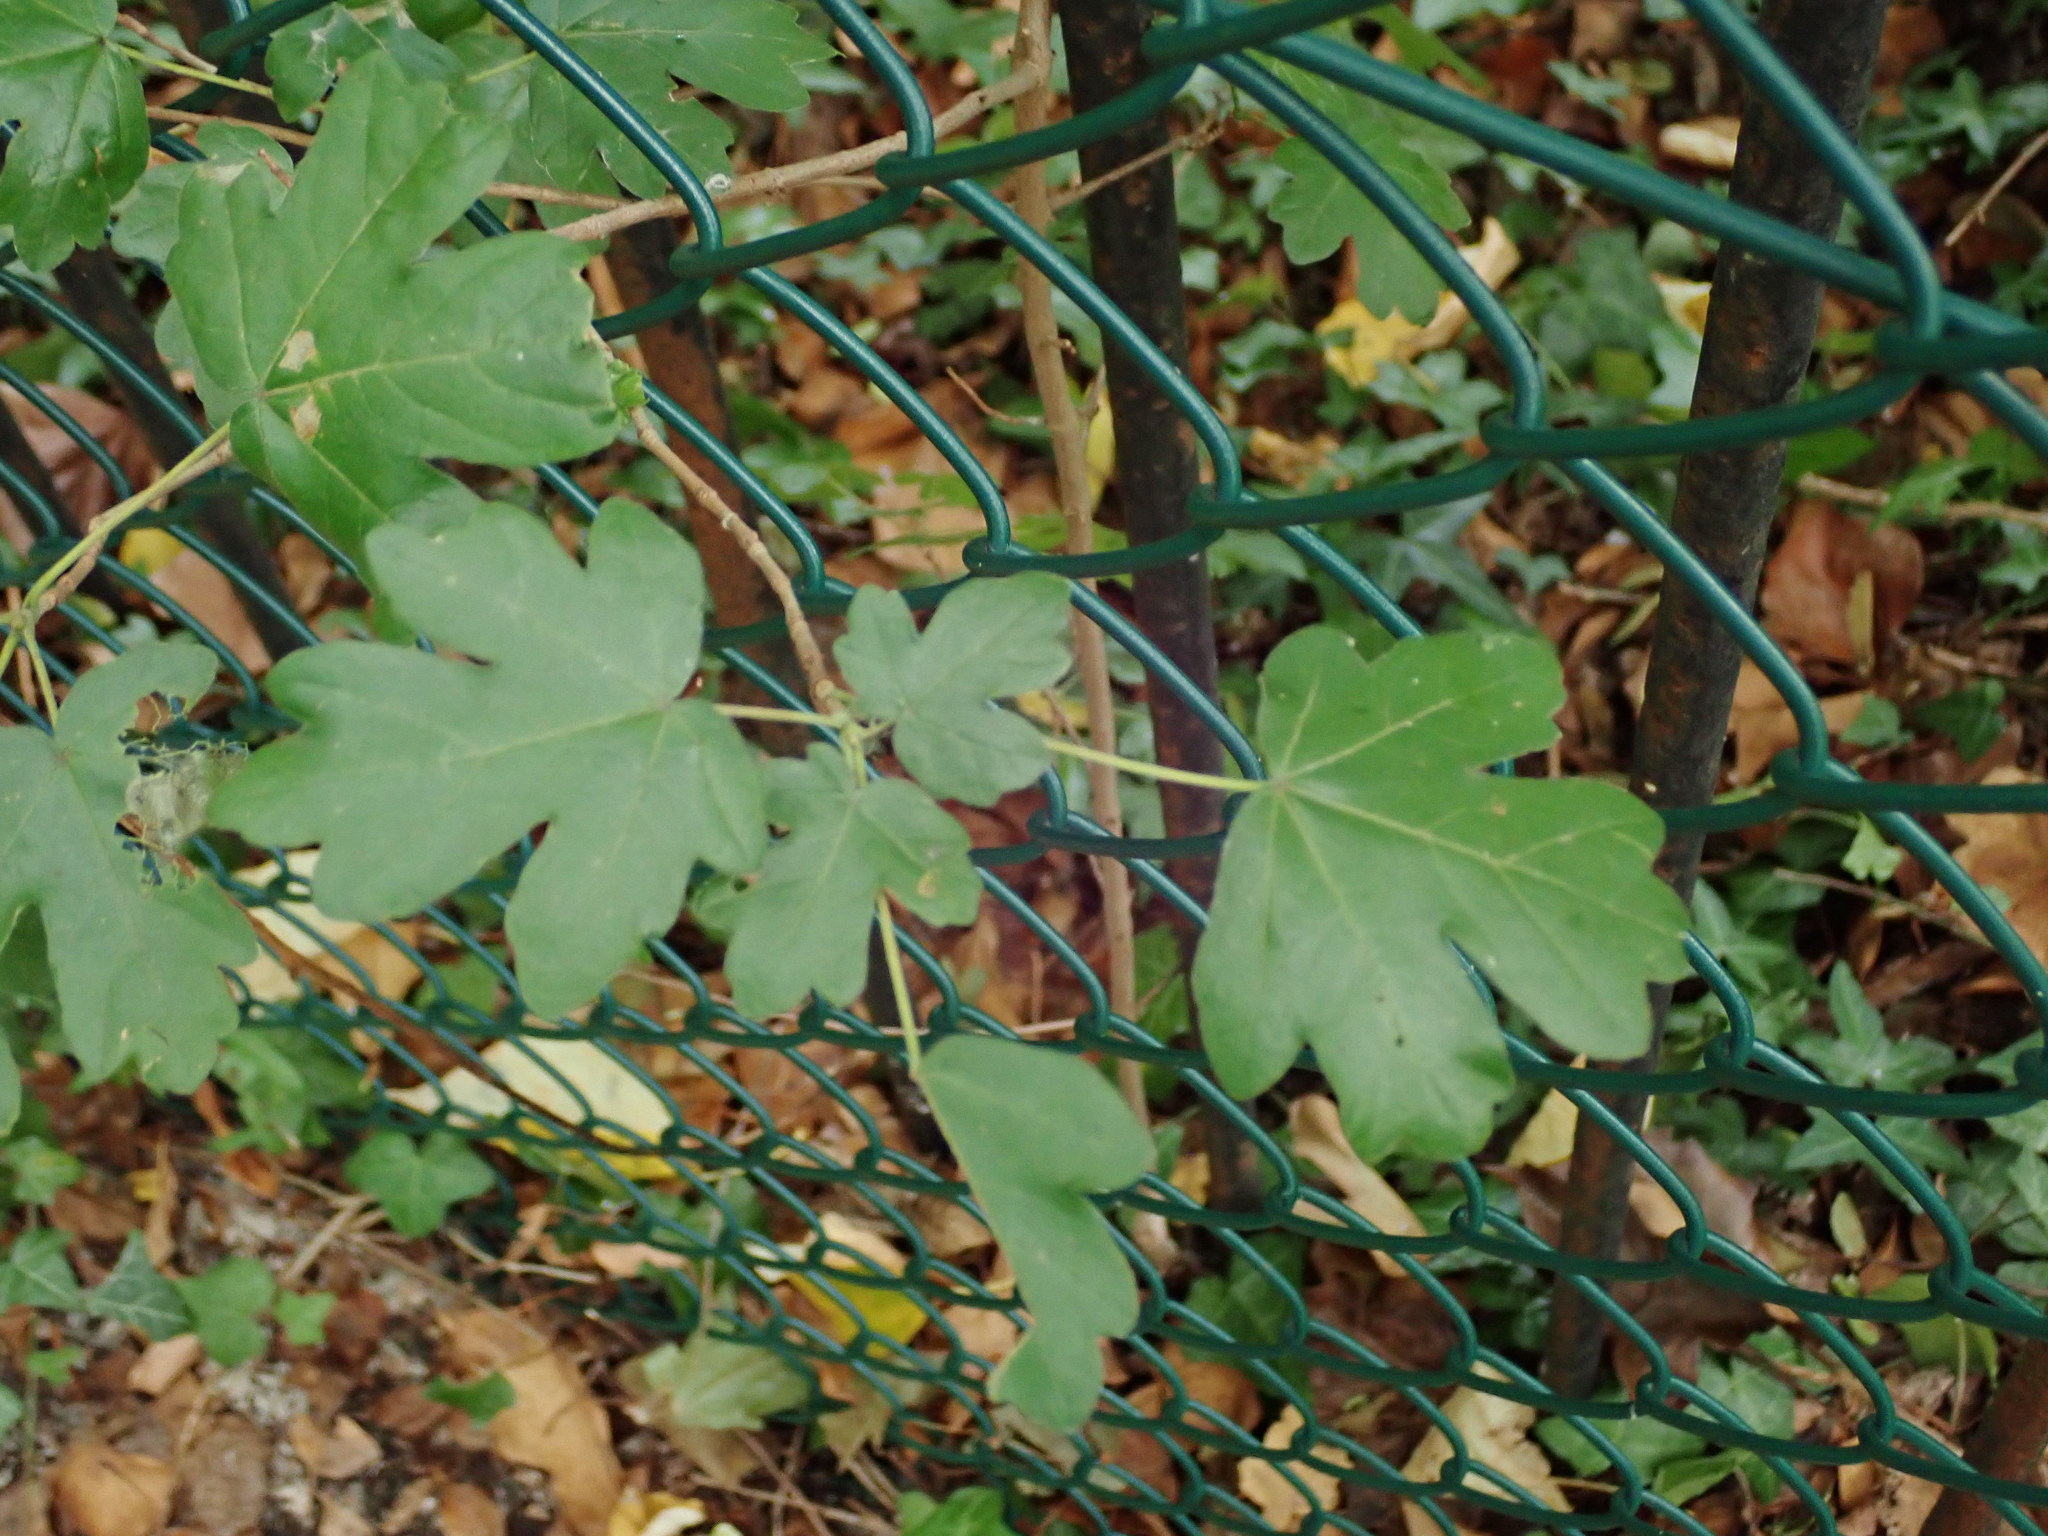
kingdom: Plantae
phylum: Tracheophyta
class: Magnoliopsida
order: Sapindales
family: Sapindaceae
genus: Acer
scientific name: Acer campestre
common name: Field maple
